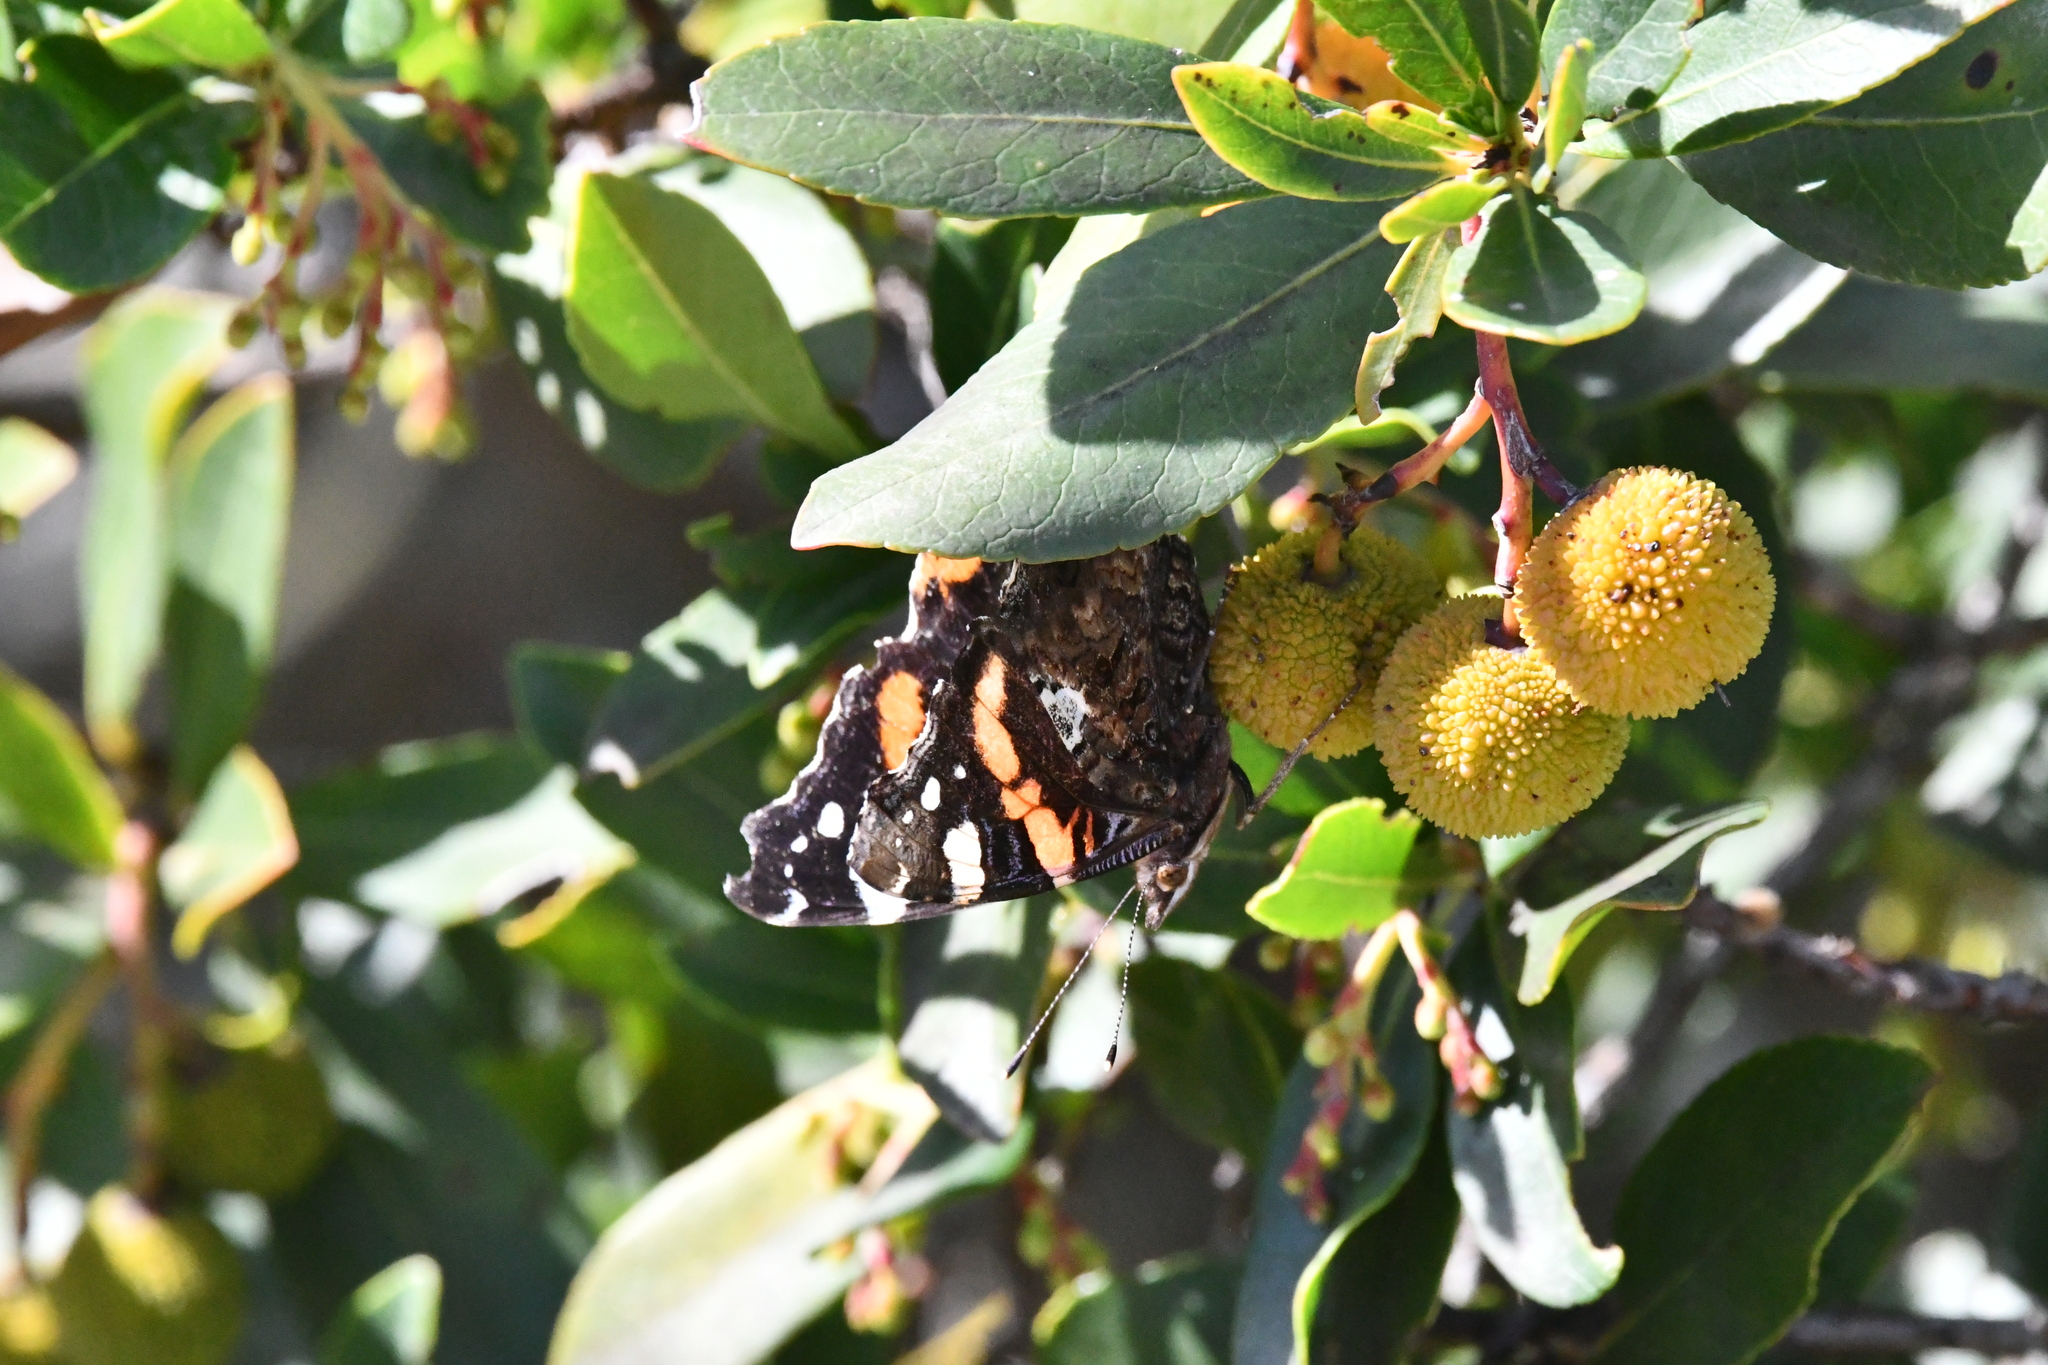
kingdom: Animalia
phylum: Arthropoda
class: Insecta
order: Lepidoptera
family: Nymphalidae
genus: Vanessa
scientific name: Vanessa atalanta
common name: Red admiral
